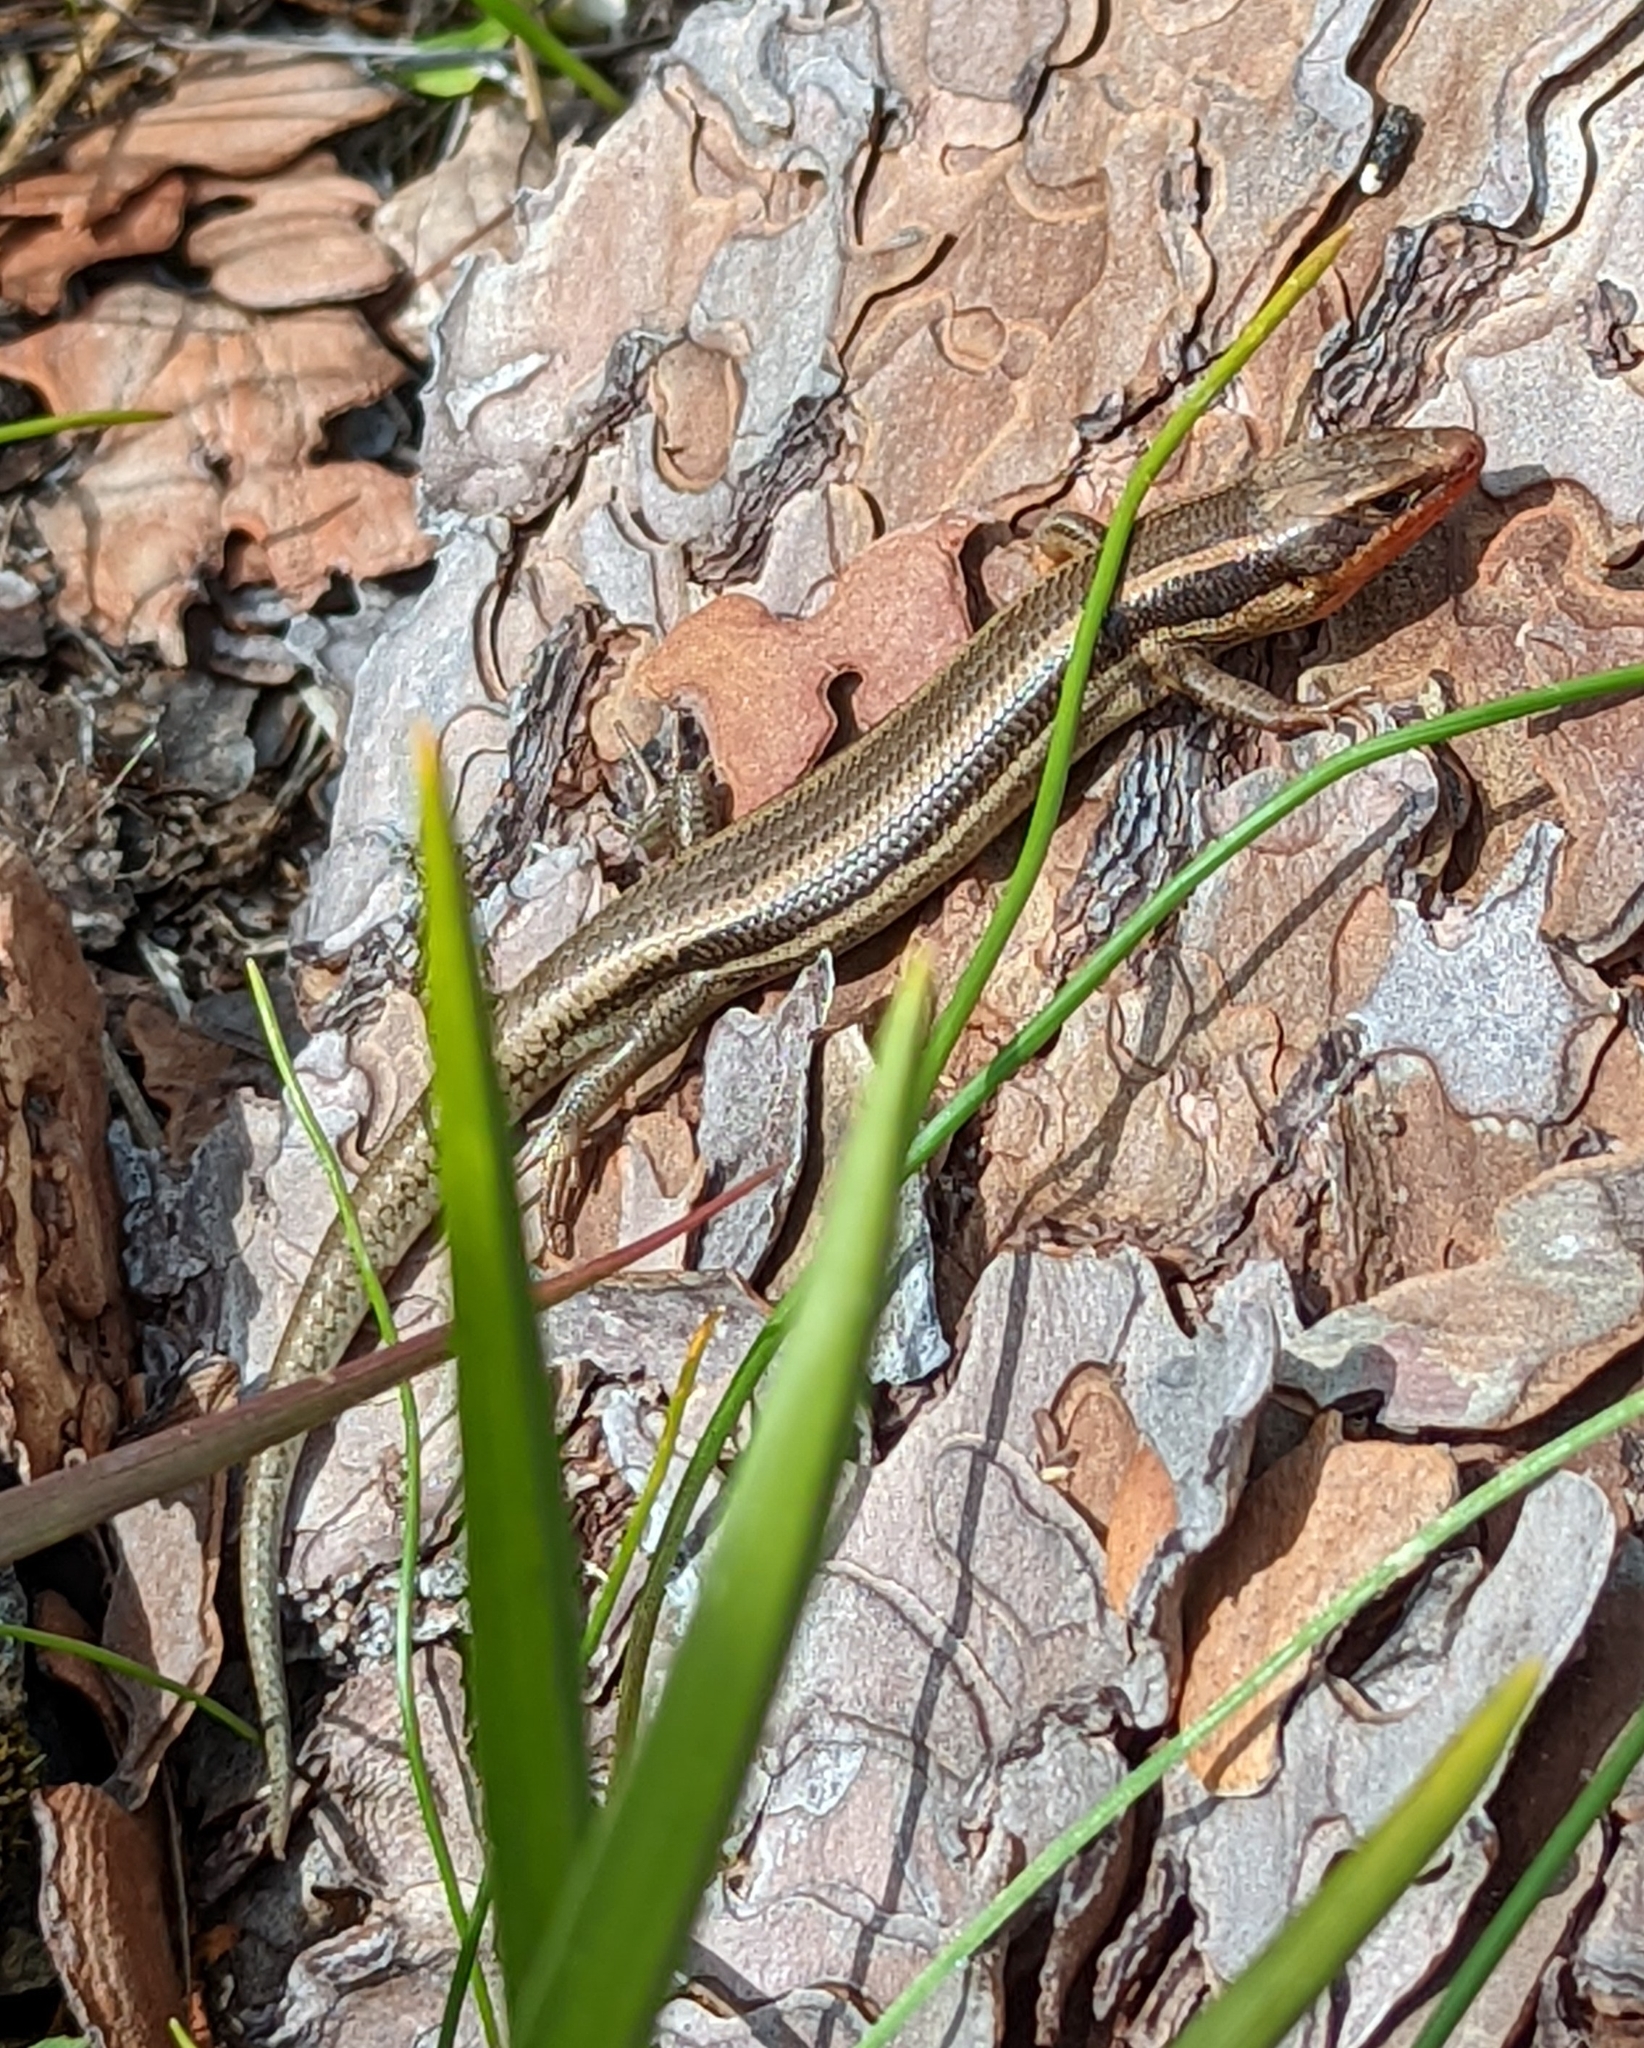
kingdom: Animalia
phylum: Chordata
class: Squamata
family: Scincidae
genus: Plestiodon
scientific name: Plestiodon skiltonianus
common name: Coronado island skink [interparietalis]
